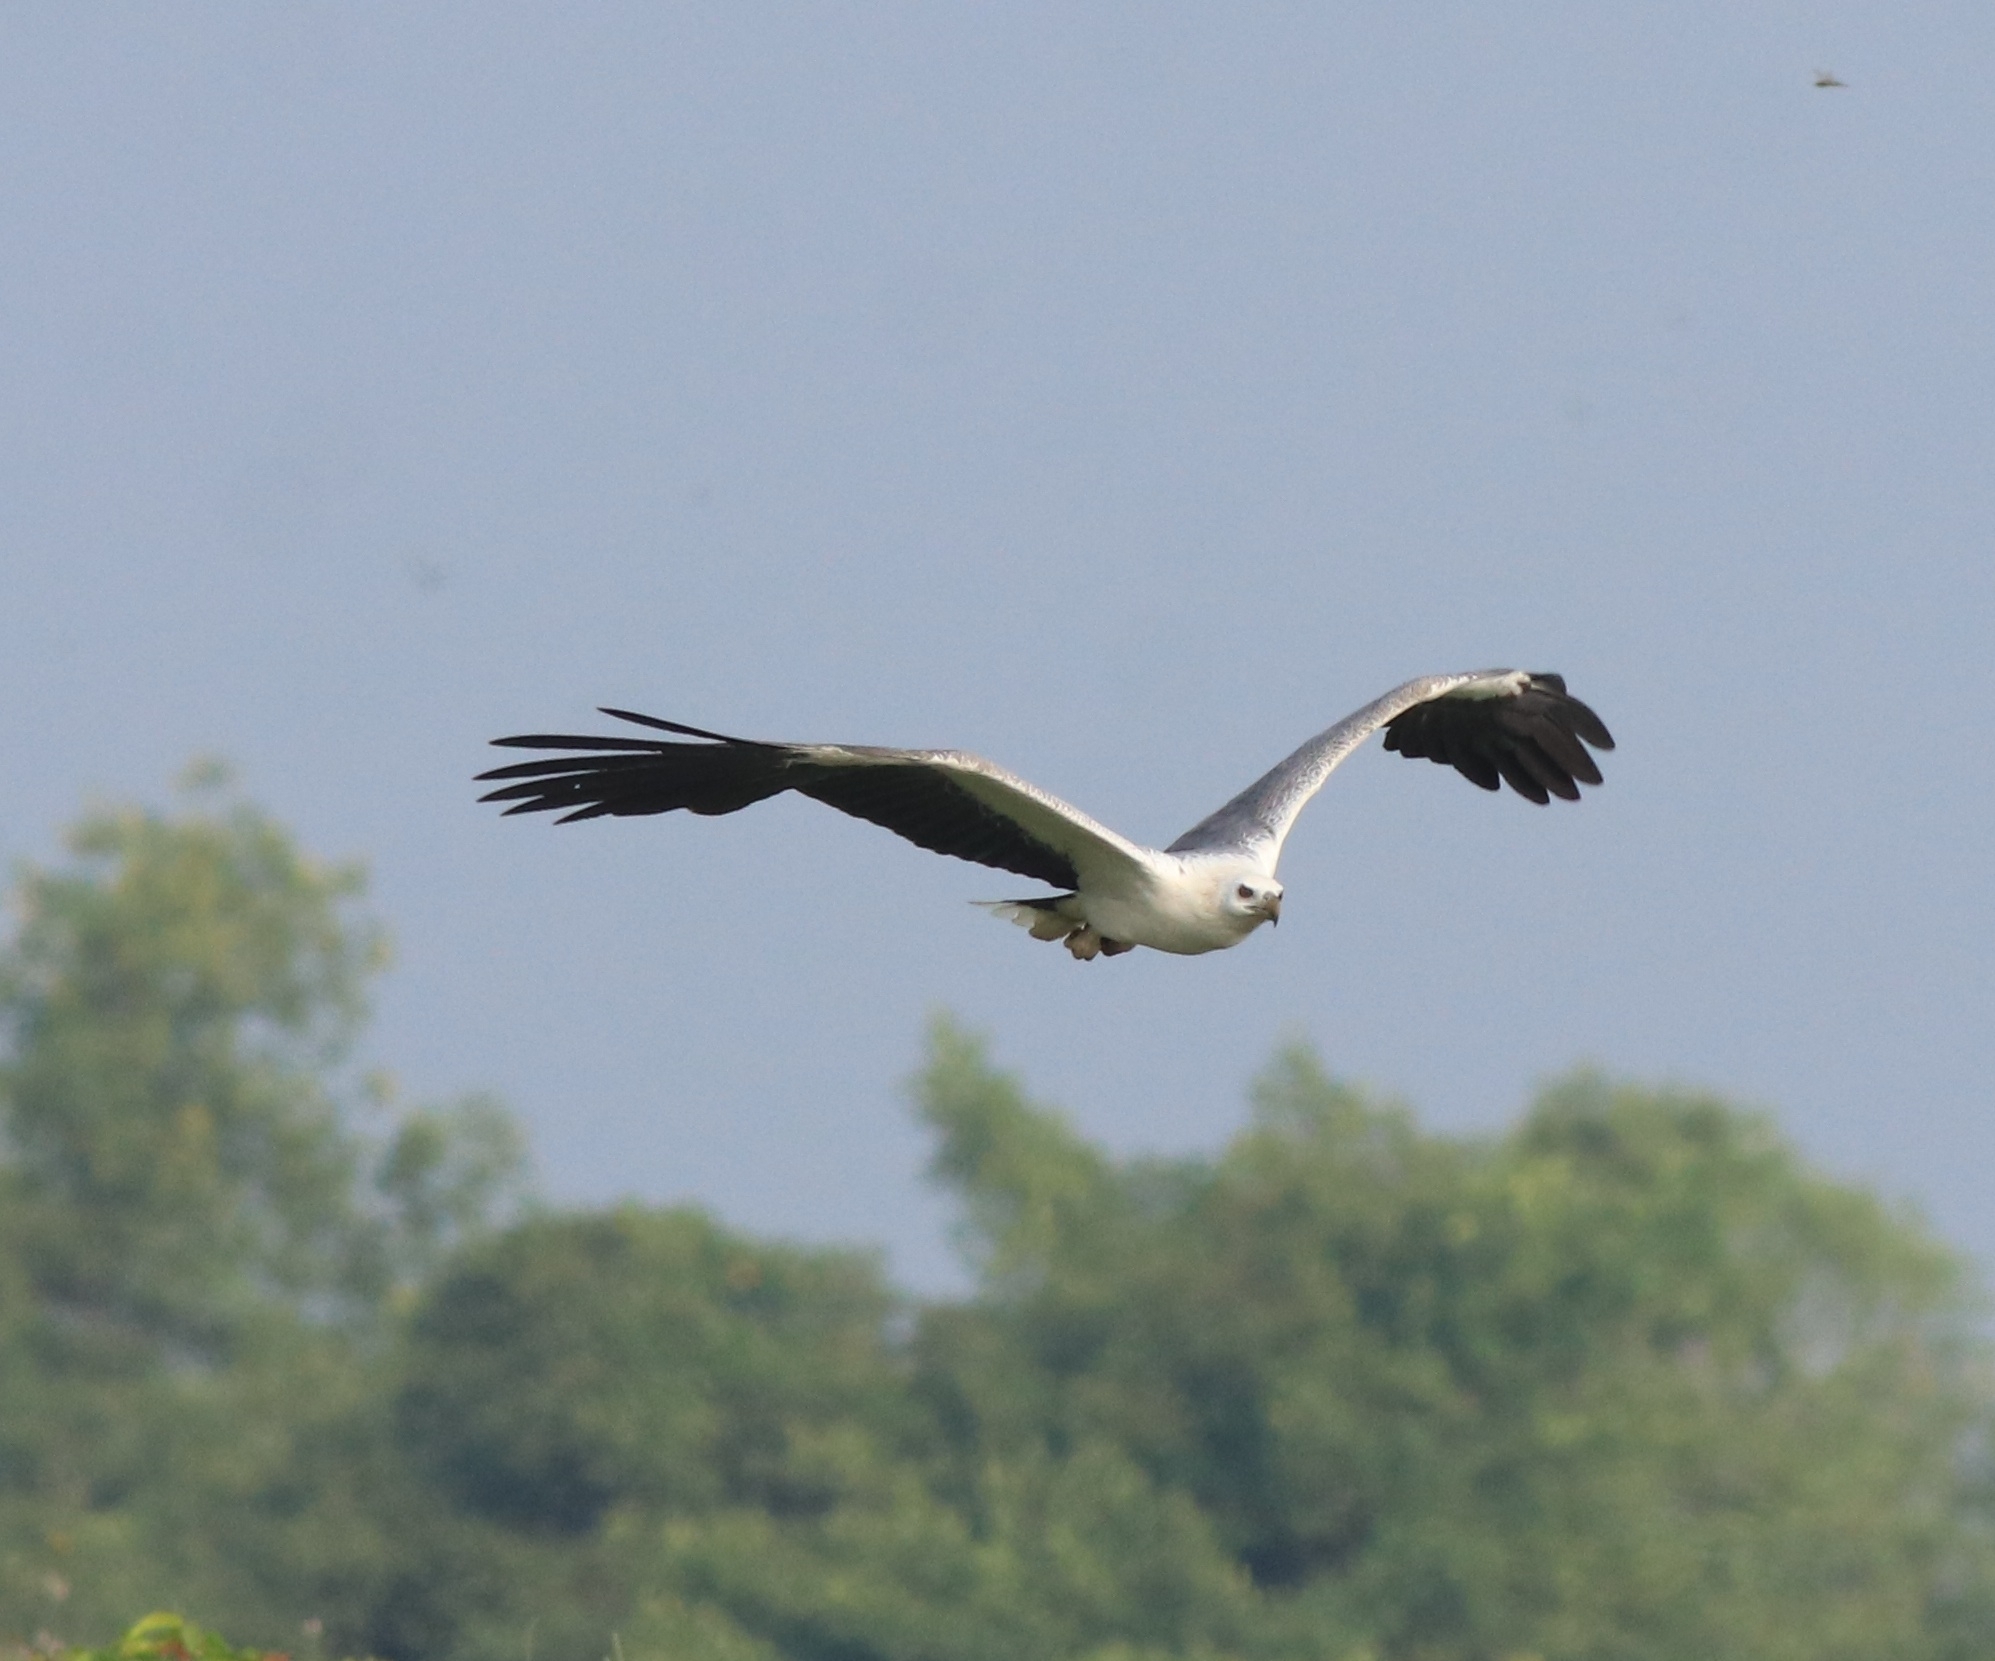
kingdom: Animalia
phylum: Chordata
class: Aves
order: Accipitriformes
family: Accipitridae
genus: Haliaeetus
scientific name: Haliaeetus leucogaster
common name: White-bellied sea eagle
